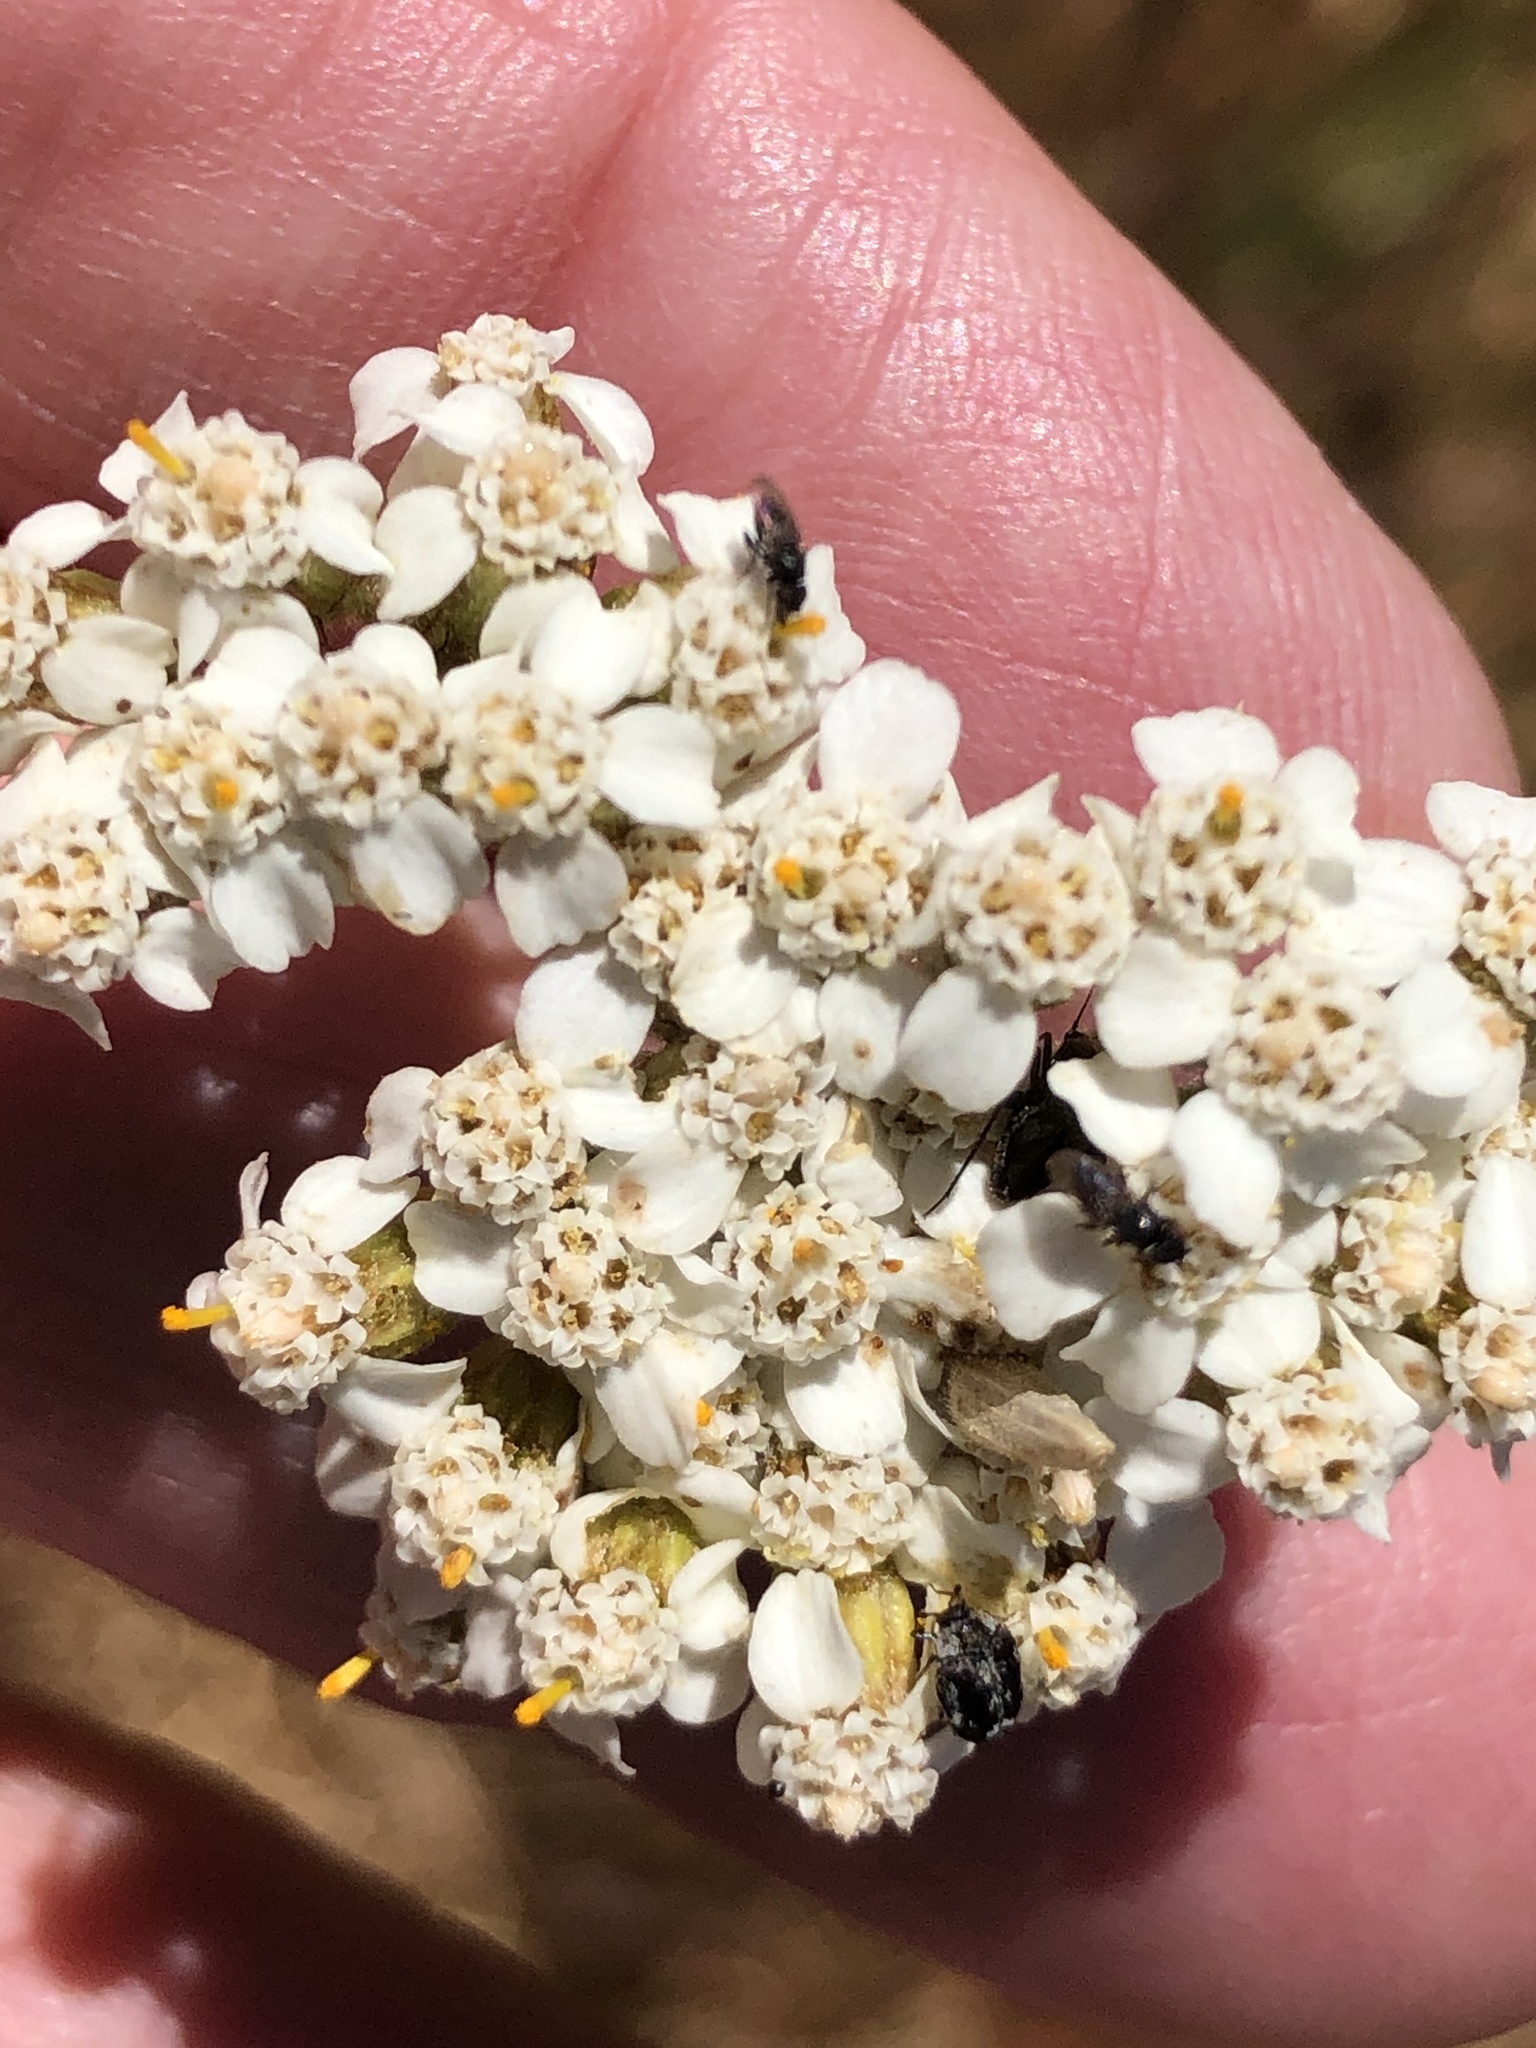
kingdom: Plantae
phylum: Tracheophyta
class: Magnoliopsida
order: Asterales
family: Asteraceae
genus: Achillea
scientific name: Achillea millefolium
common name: Yarrow
